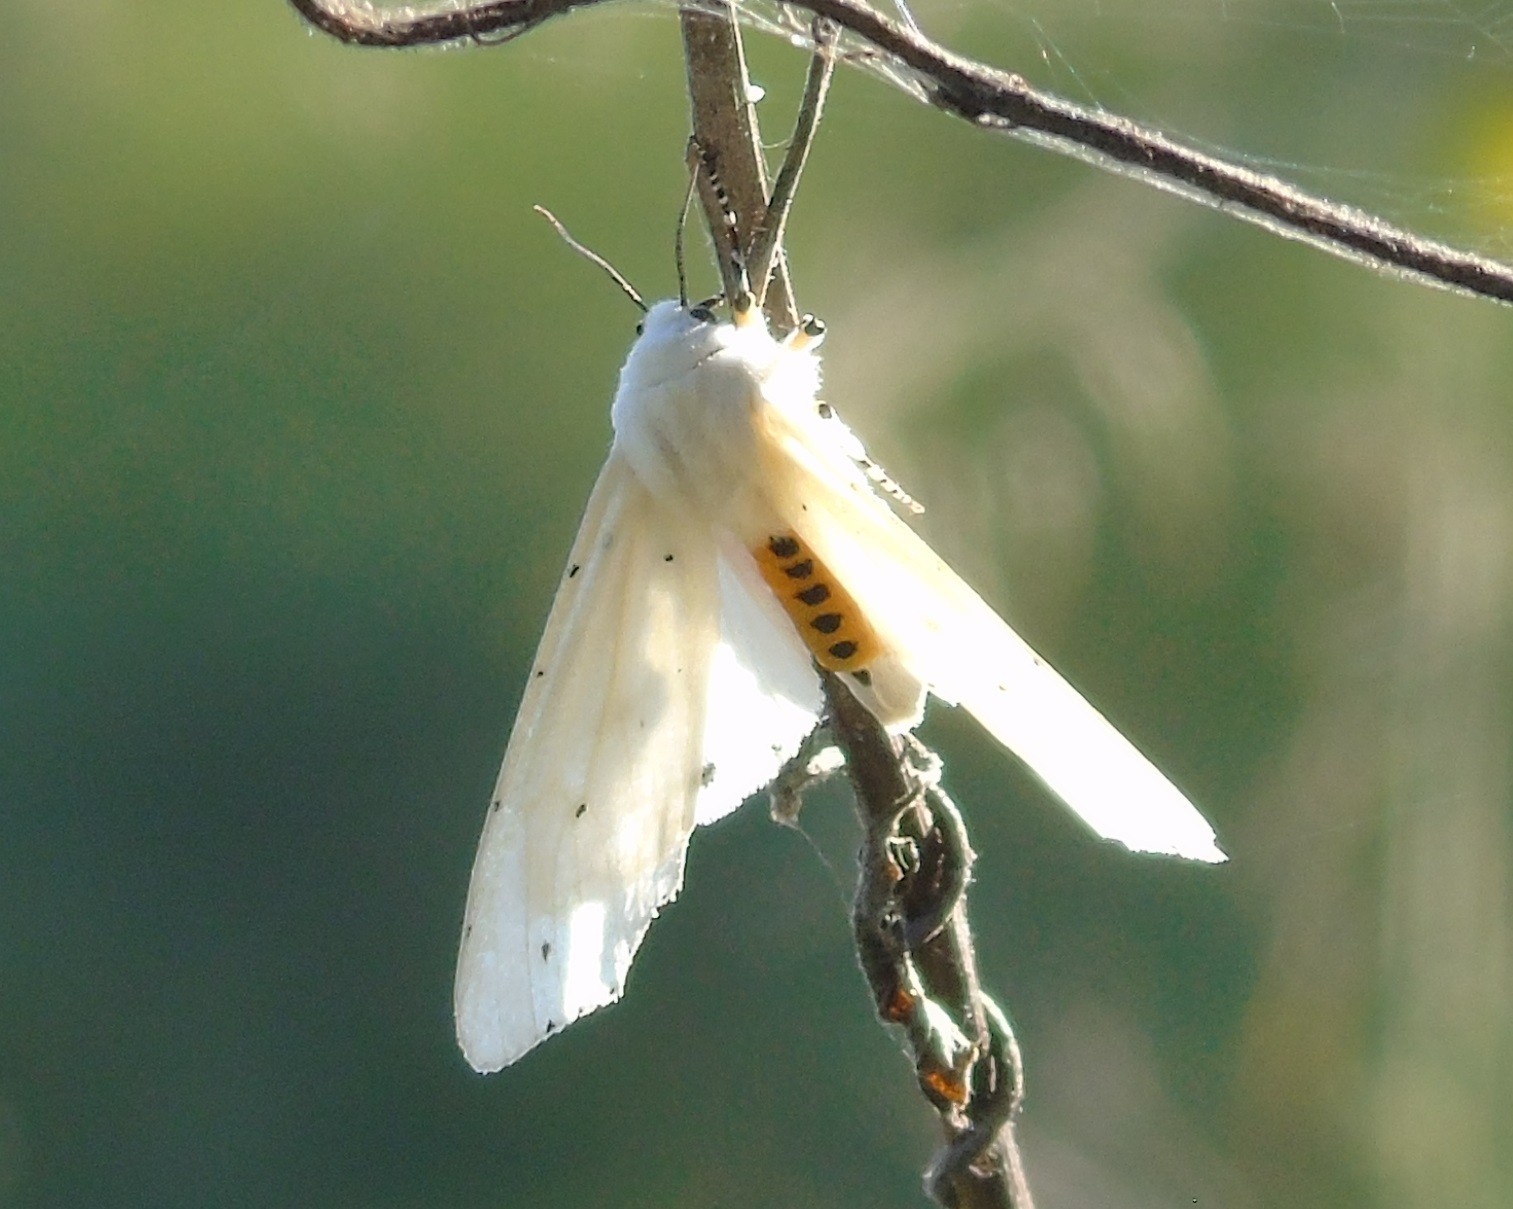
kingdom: Animalia
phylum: Arthropoda
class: Insecta
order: Lepidoptera
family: Erebidae
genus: Estigmene
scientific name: Estigmene
